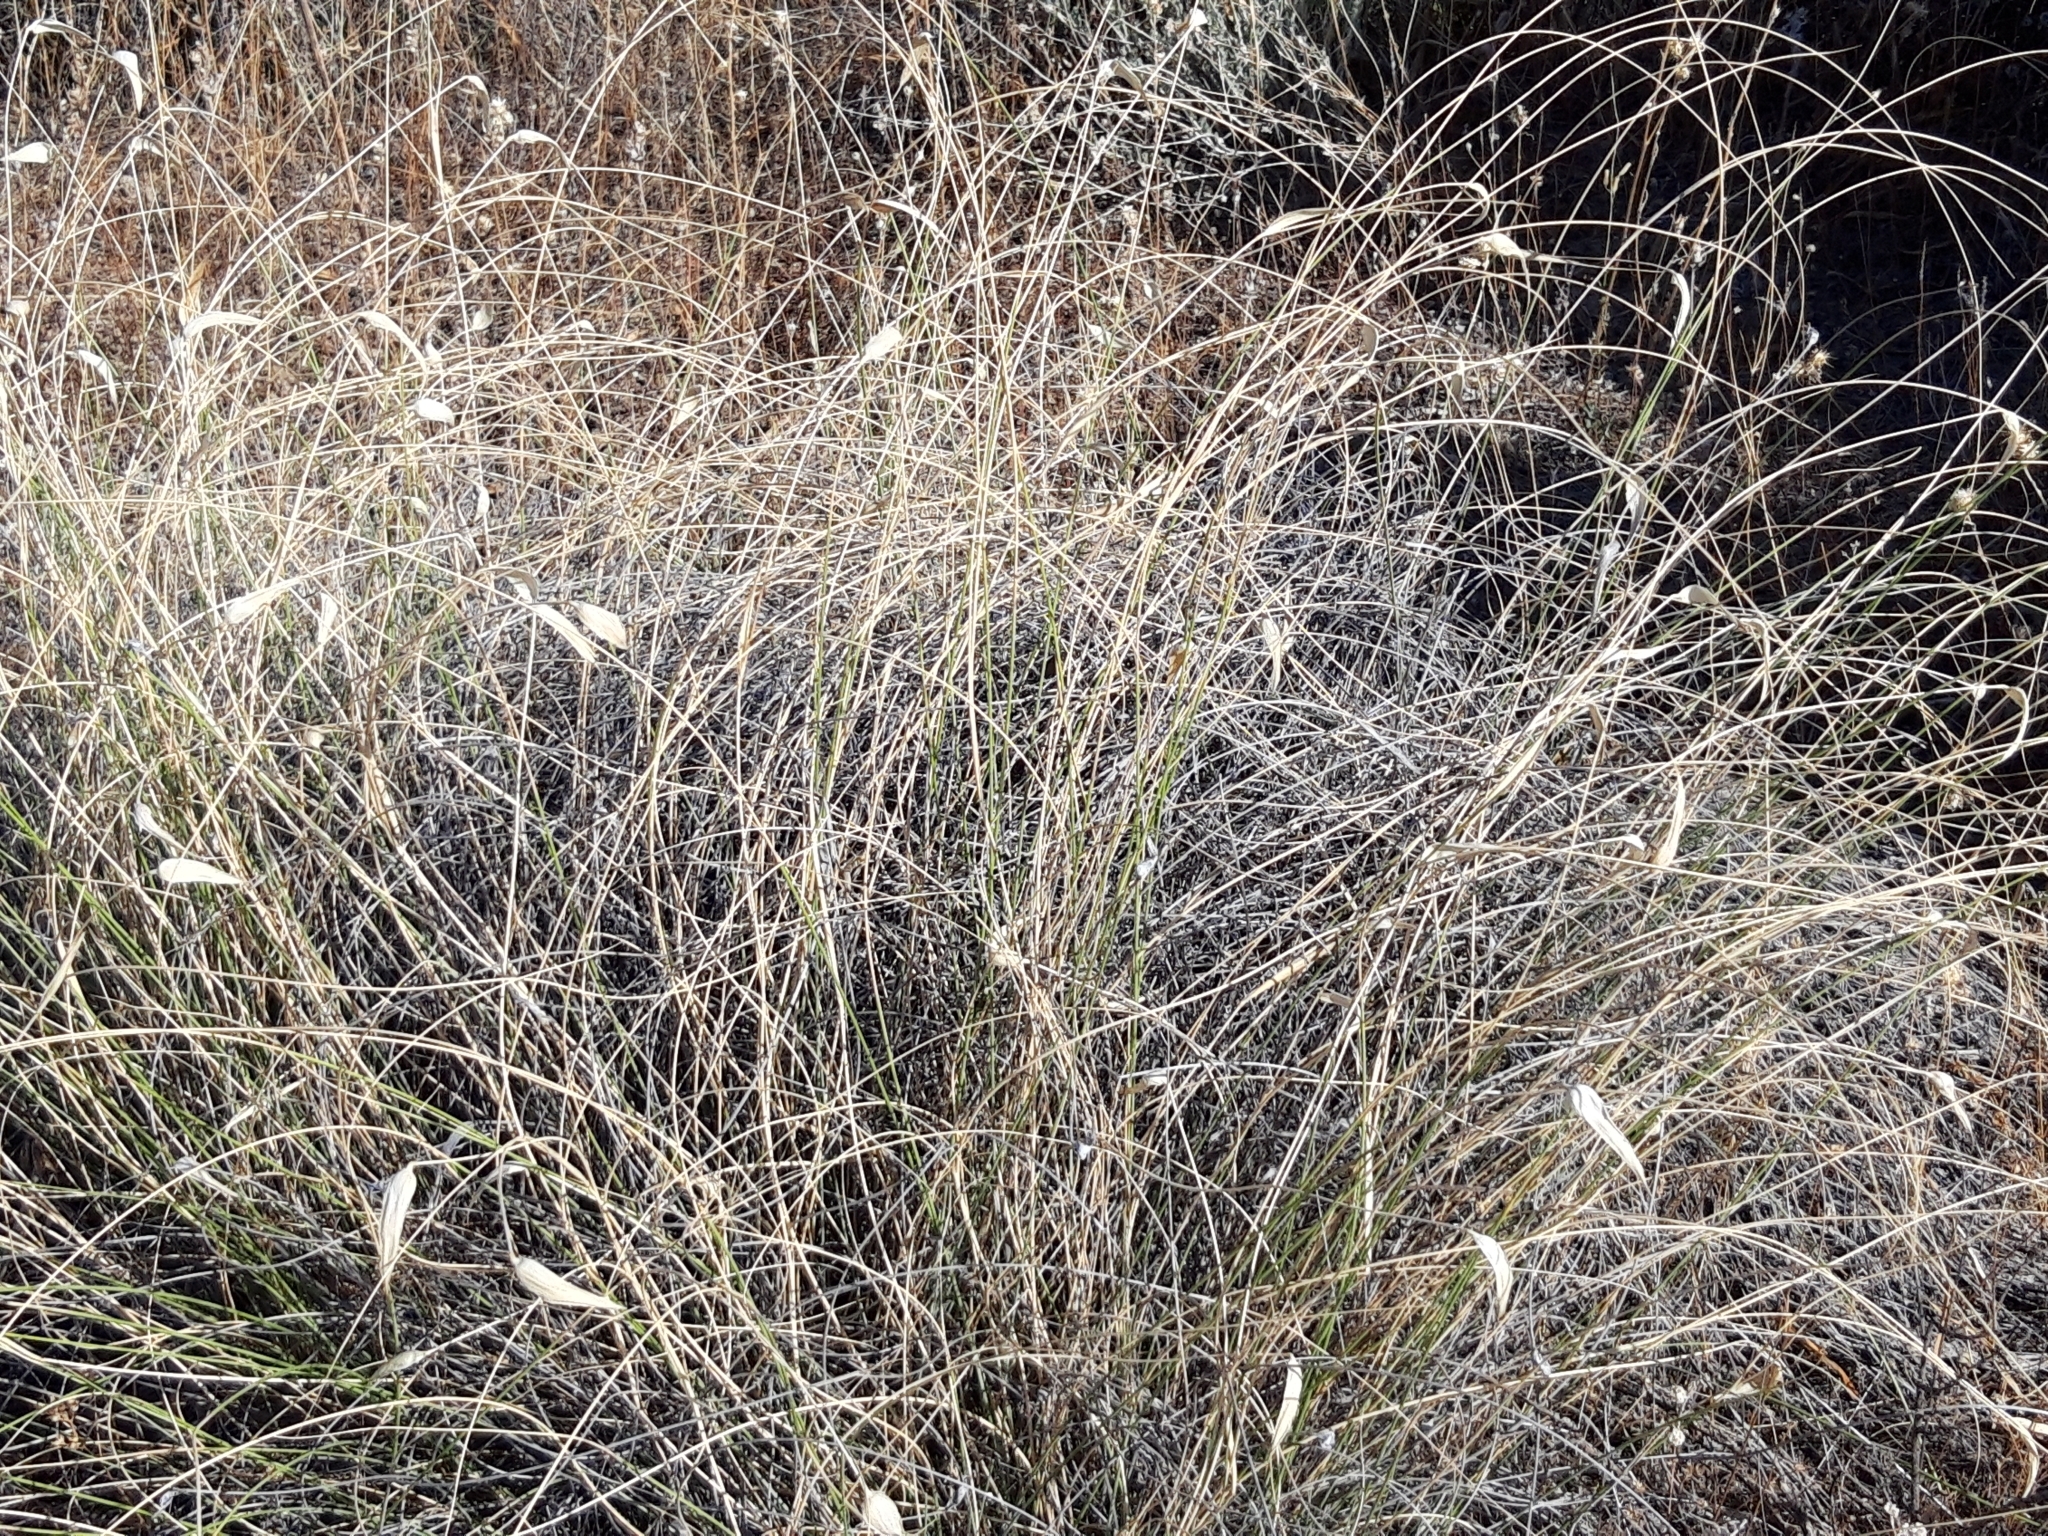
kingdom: Plantae
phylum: Tracheophyta
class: Liliopsida
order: Poales
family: Poaceae
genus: Lygeum
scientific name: Lygeum spartum
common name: Albardine
